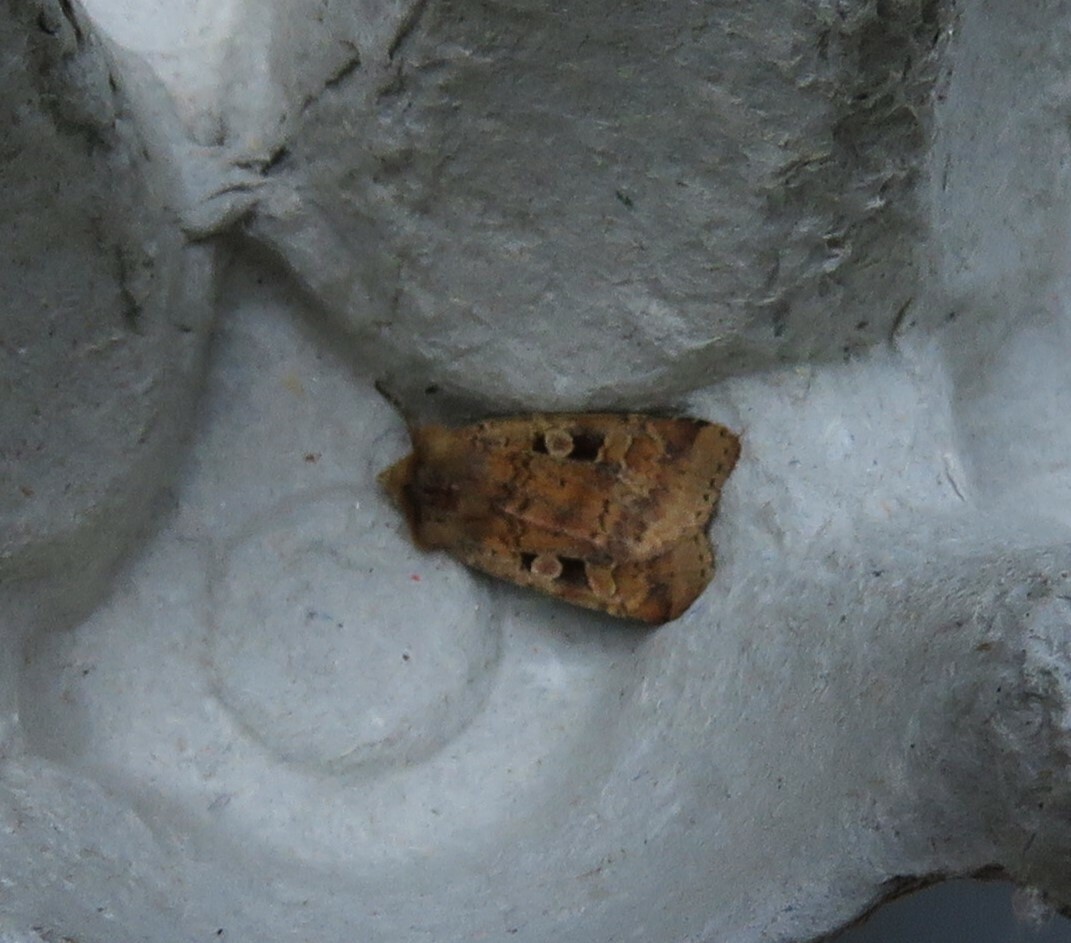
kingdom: Animalia
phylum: Arthropoda
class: Insecta
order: Lepidoptera
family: Noctuidae
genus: Diarsia
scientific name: Diarsia mendica
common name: Ingrailed clay
